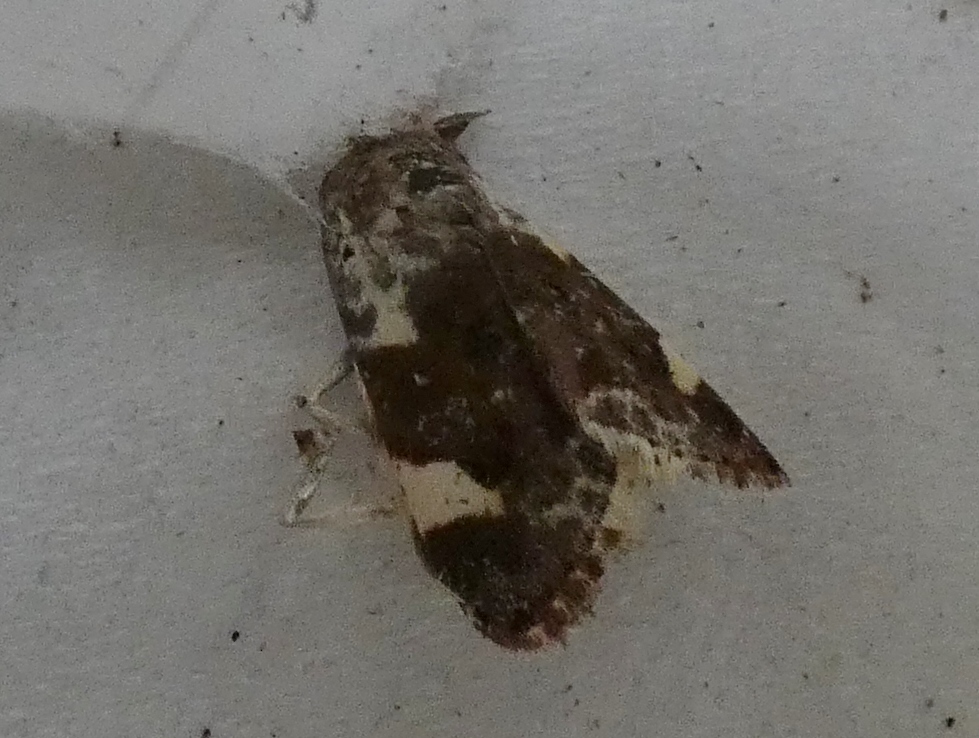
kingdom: Animalia
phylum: Arthropoda
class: Insecta
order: Lepidoptera
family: Noctuidae
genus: Acontia
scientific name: Acontia lucida
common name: Pale shoulder
